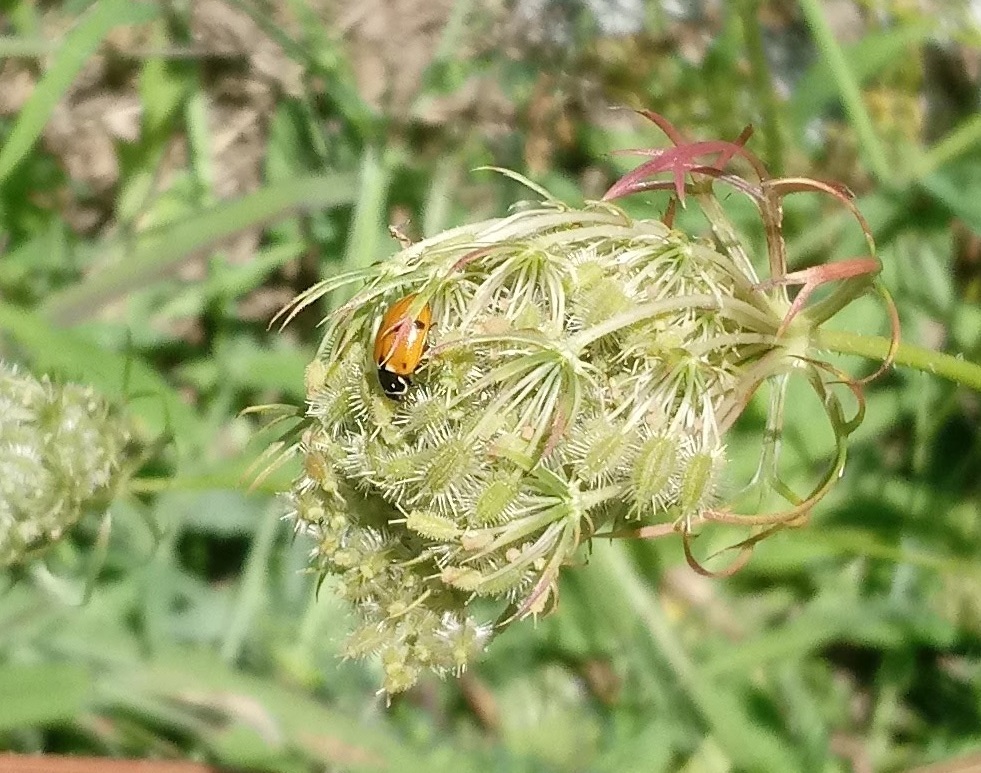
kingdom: Animalia
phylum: Arthropoda
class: Insecta
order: Coleoptera
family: Coccinellidae
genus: Hippodamia
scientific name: Hippodamia variegata
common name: Ladybird beetle
